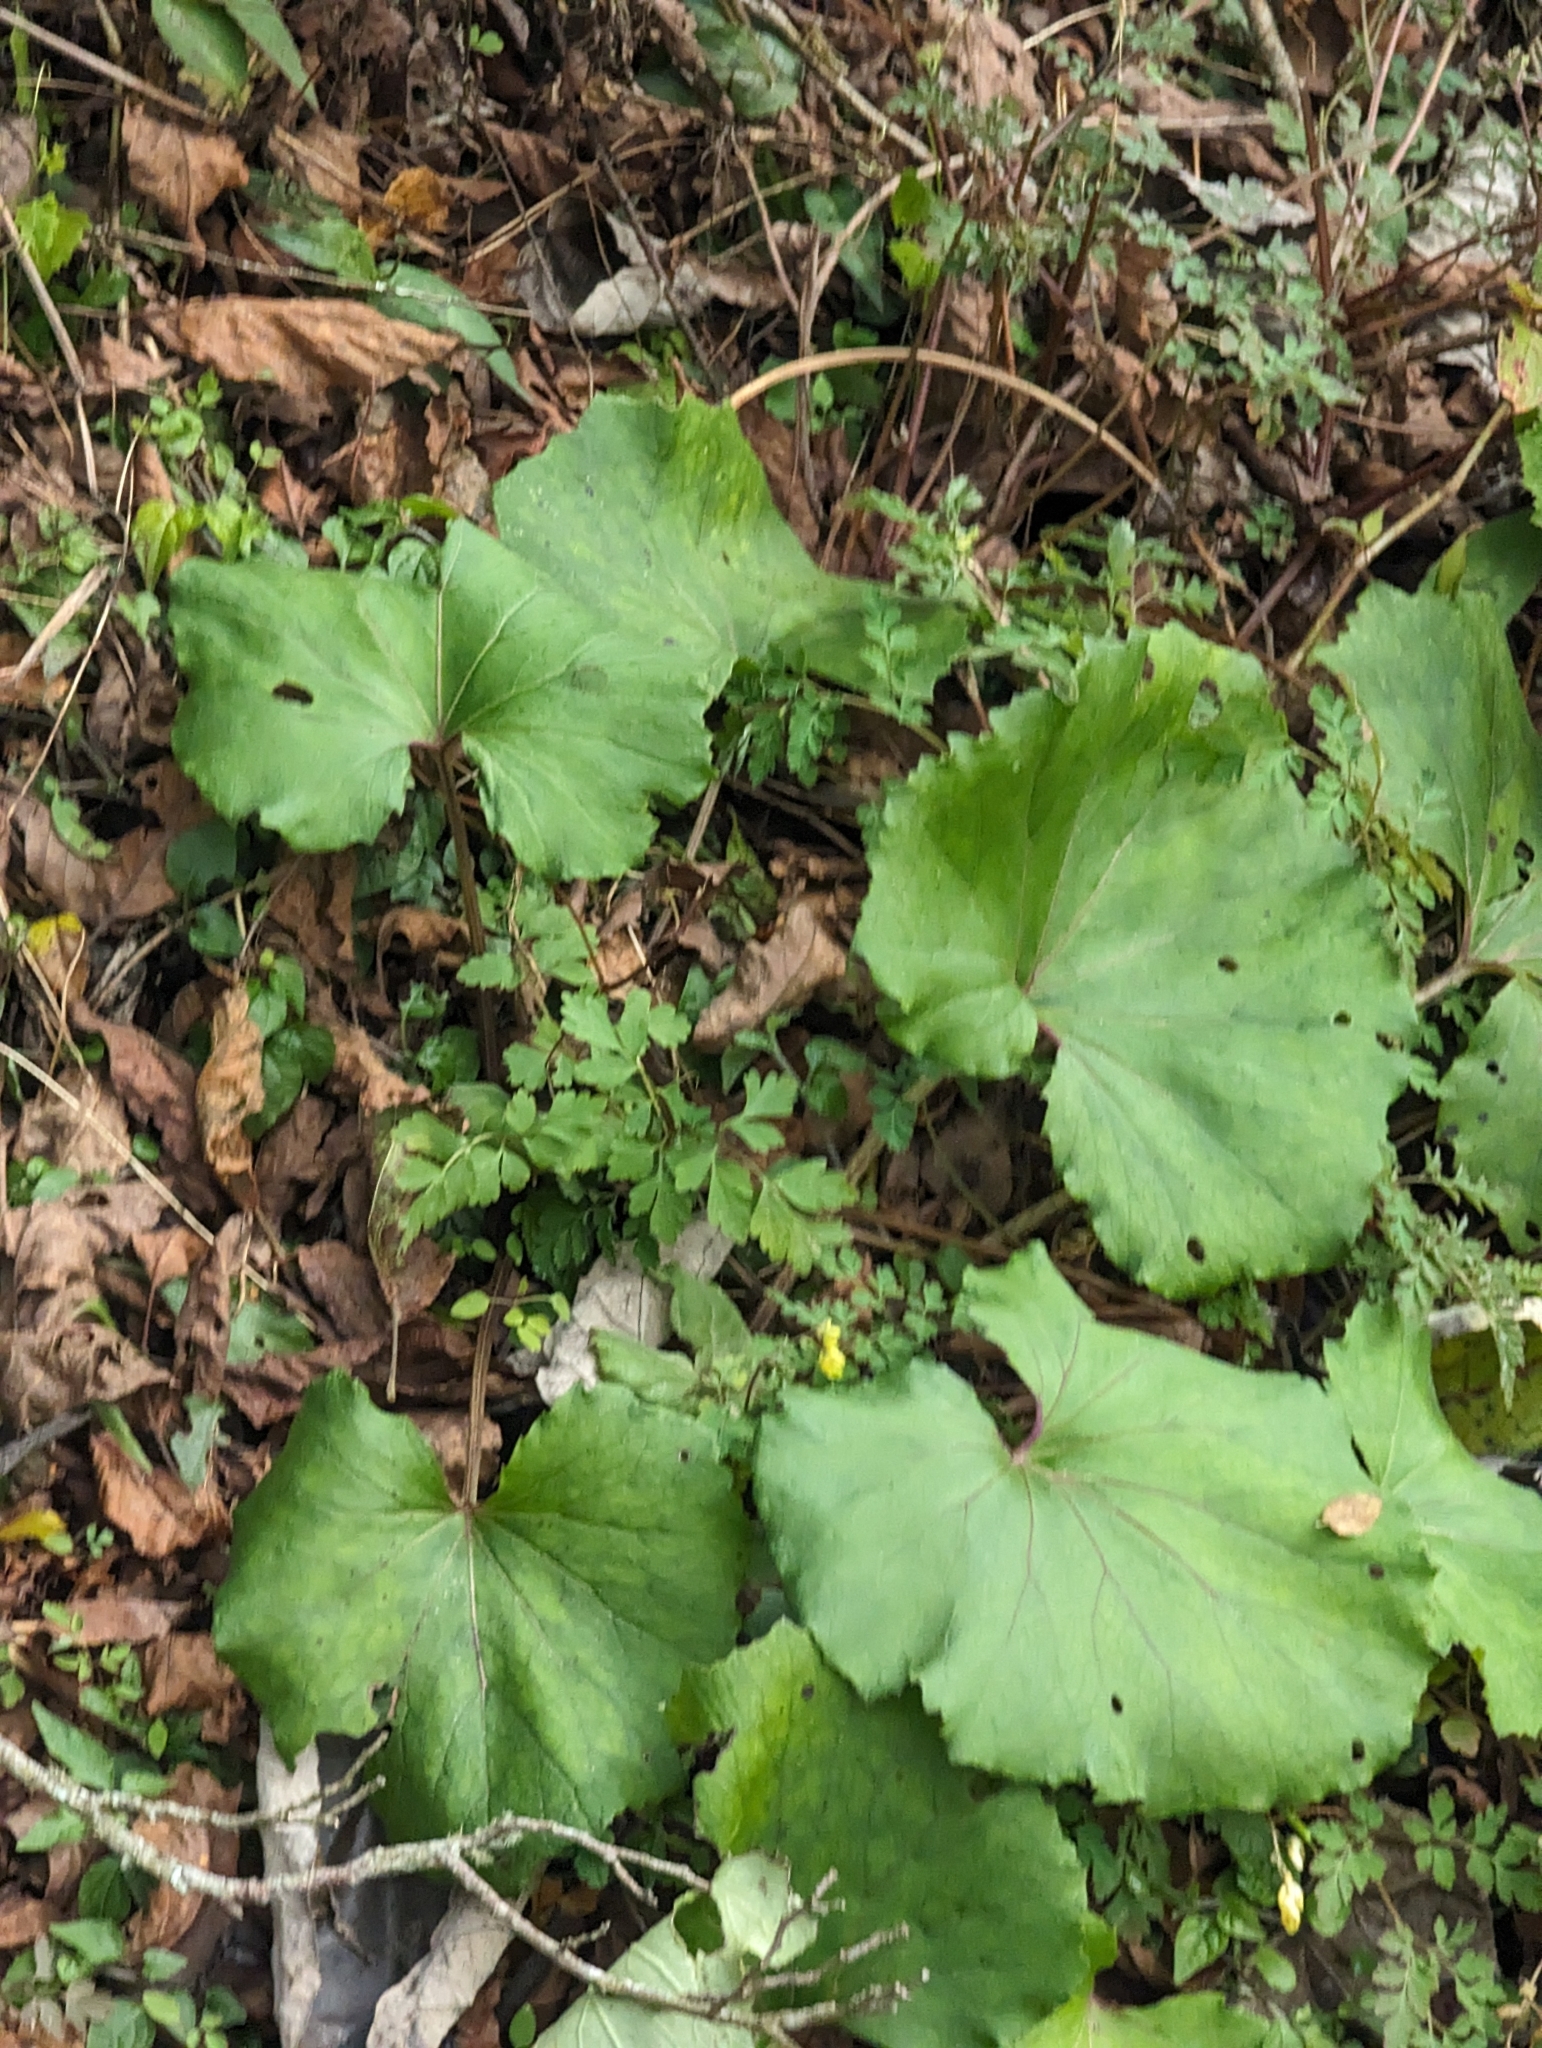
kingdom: Plantae
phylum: Tracheophyta
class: Magnoliopsida
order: Asterales
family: Asteraceae
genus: Petasites
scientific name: Petasites formosanus
